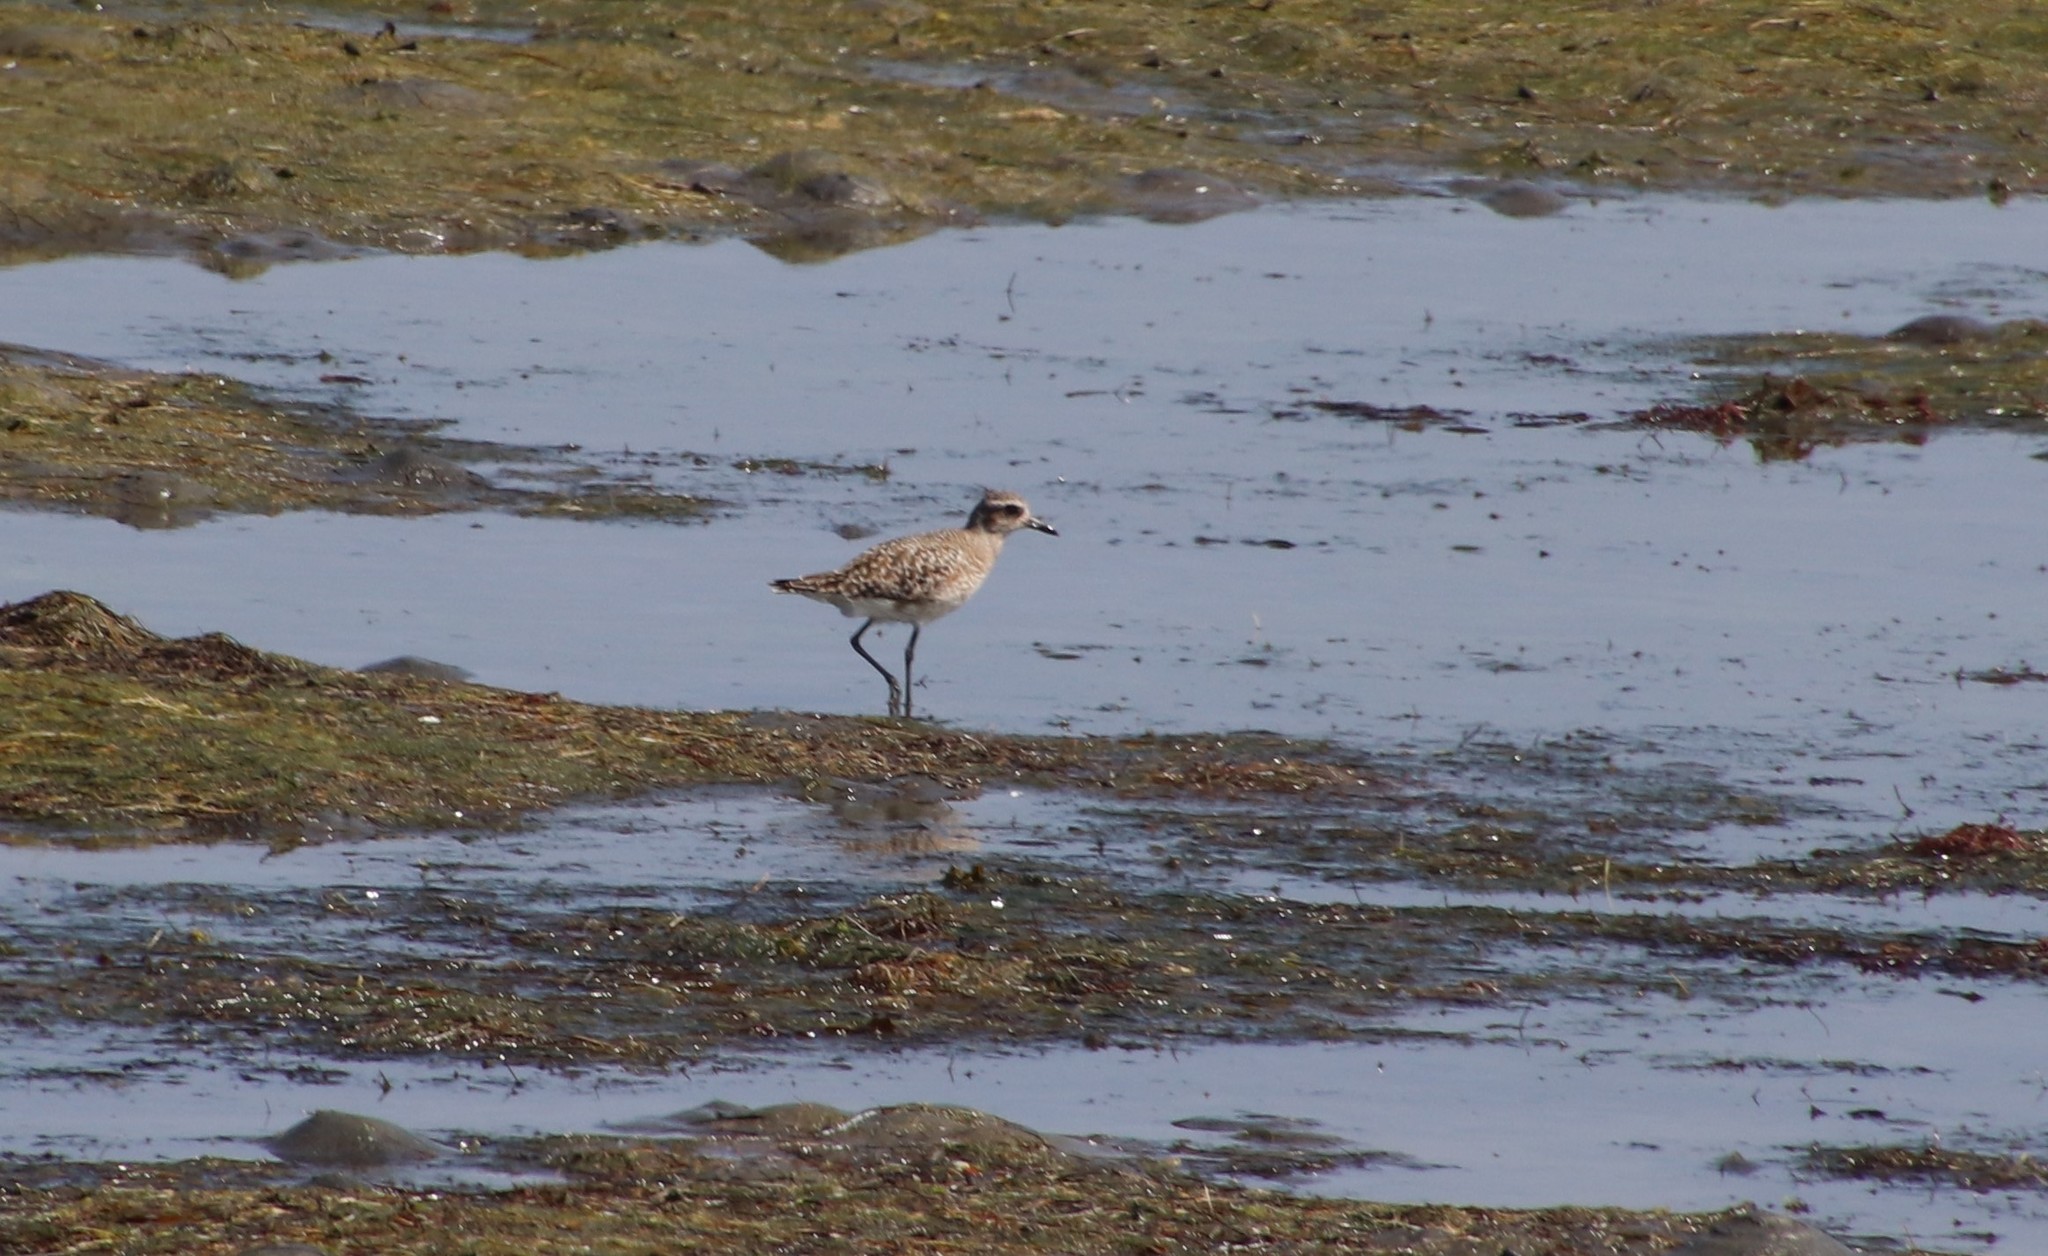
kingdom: Animalia
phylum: Chordata
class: Aves
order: Charadriiformes
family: Charadriidae
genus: Pluvialis
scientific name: Pluvialis squatarola
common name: Grey plover
